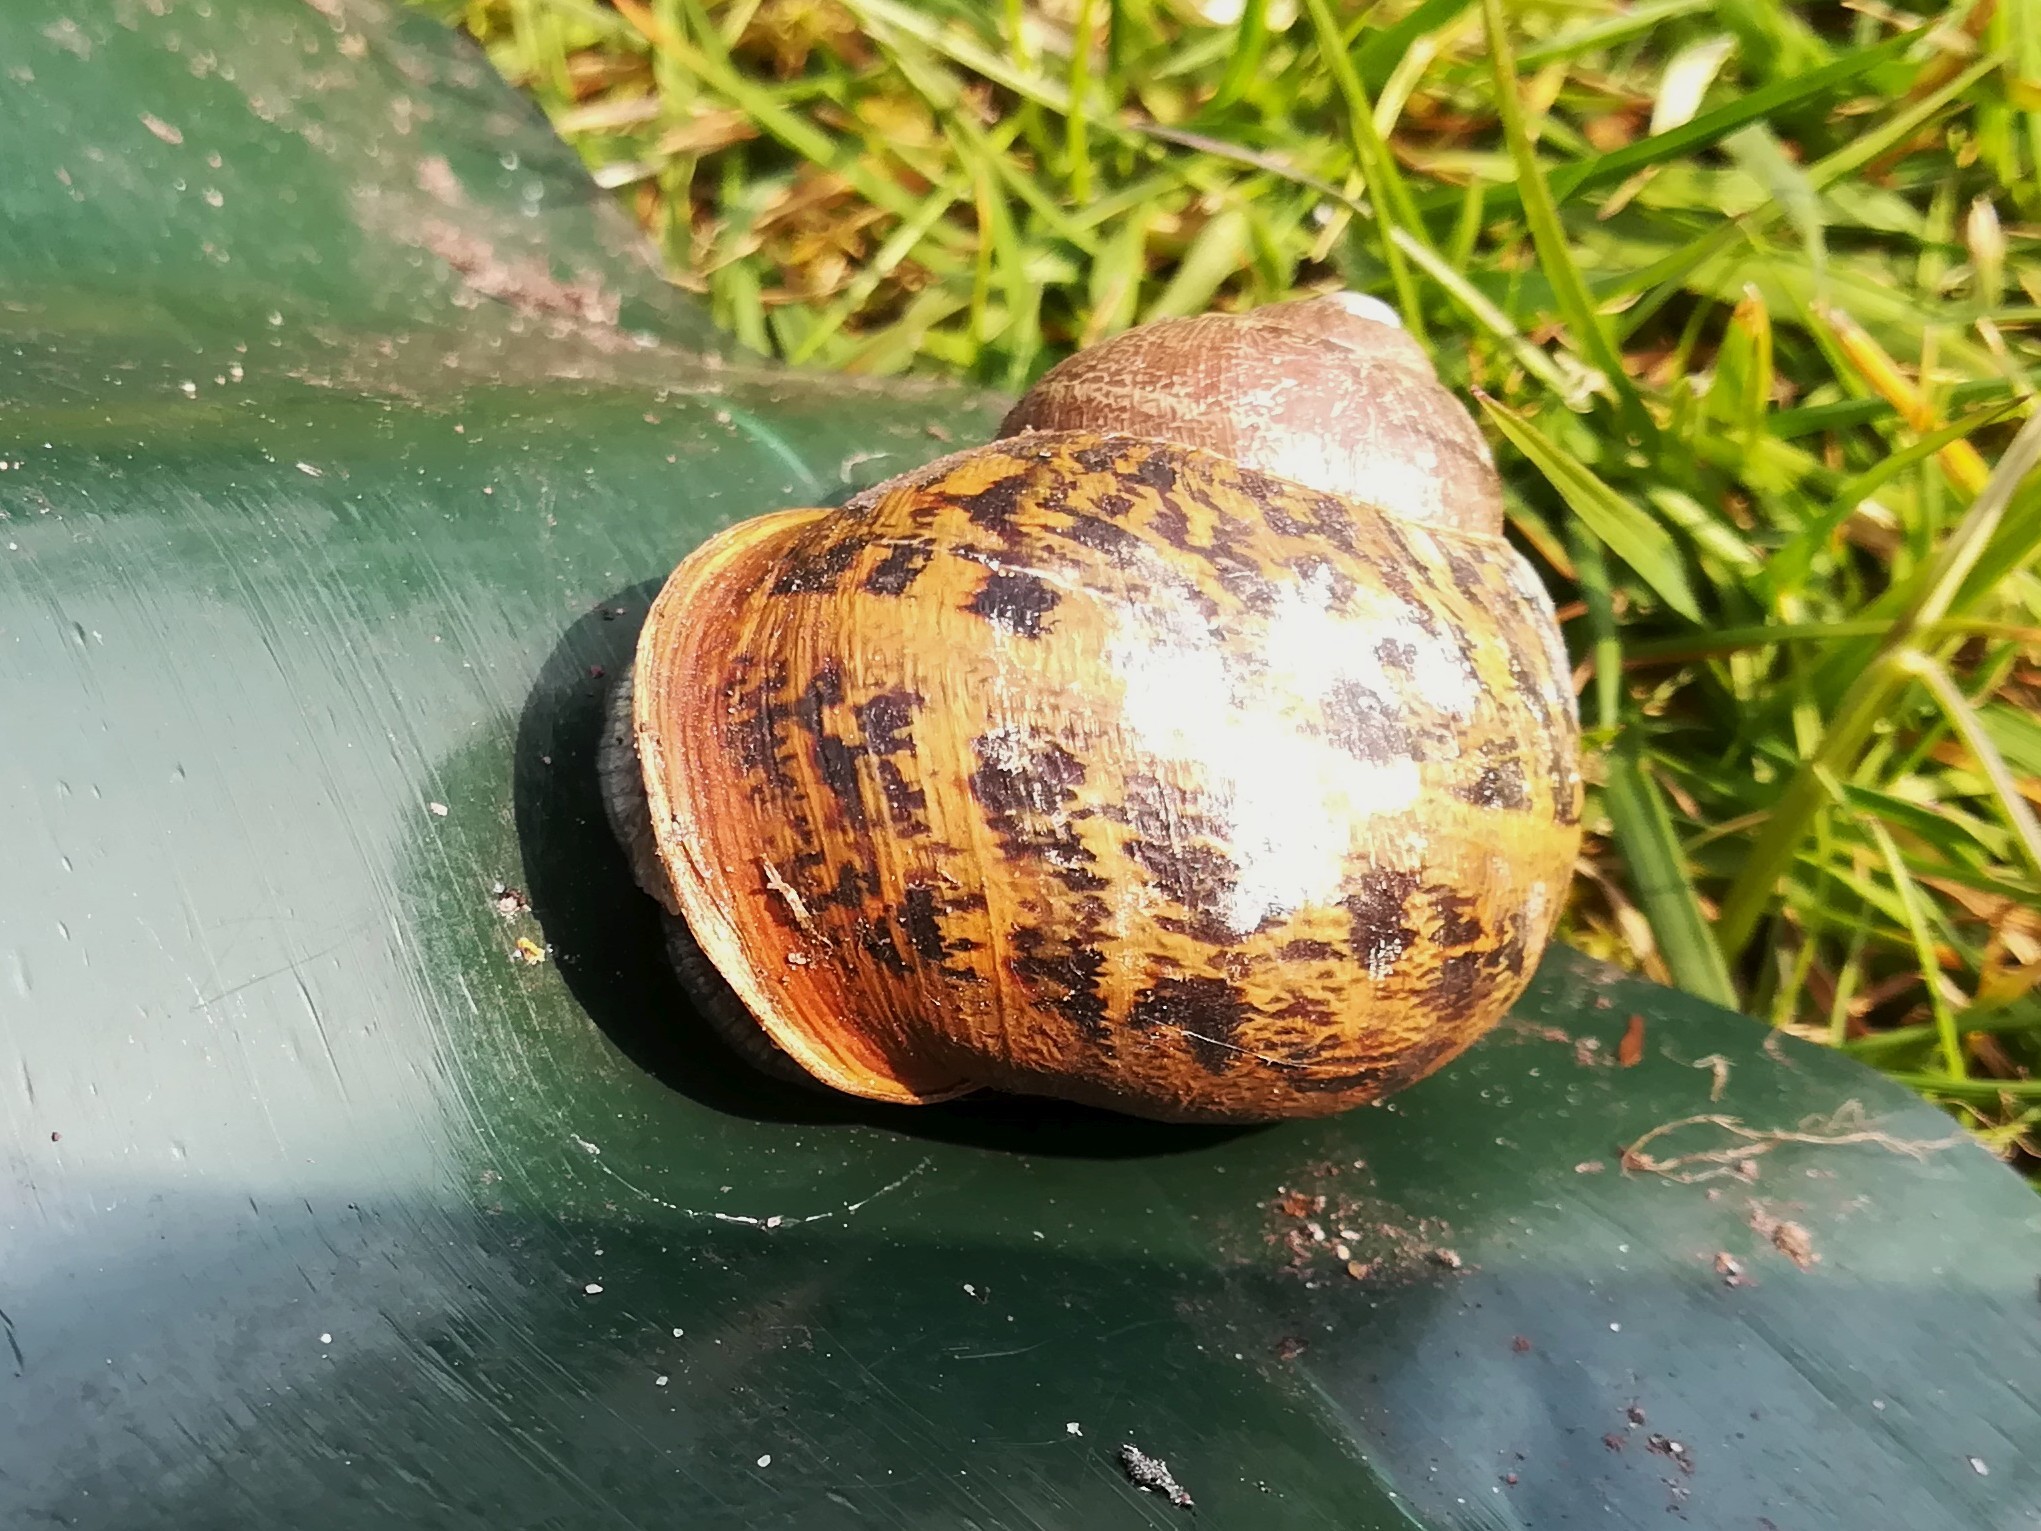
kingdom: Animalia
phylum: Mollusca
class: Gastropoda
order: Stylommatophora
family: Helicidae
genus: Cornu
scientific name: Cornu aspersum
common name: Brown garden snail
